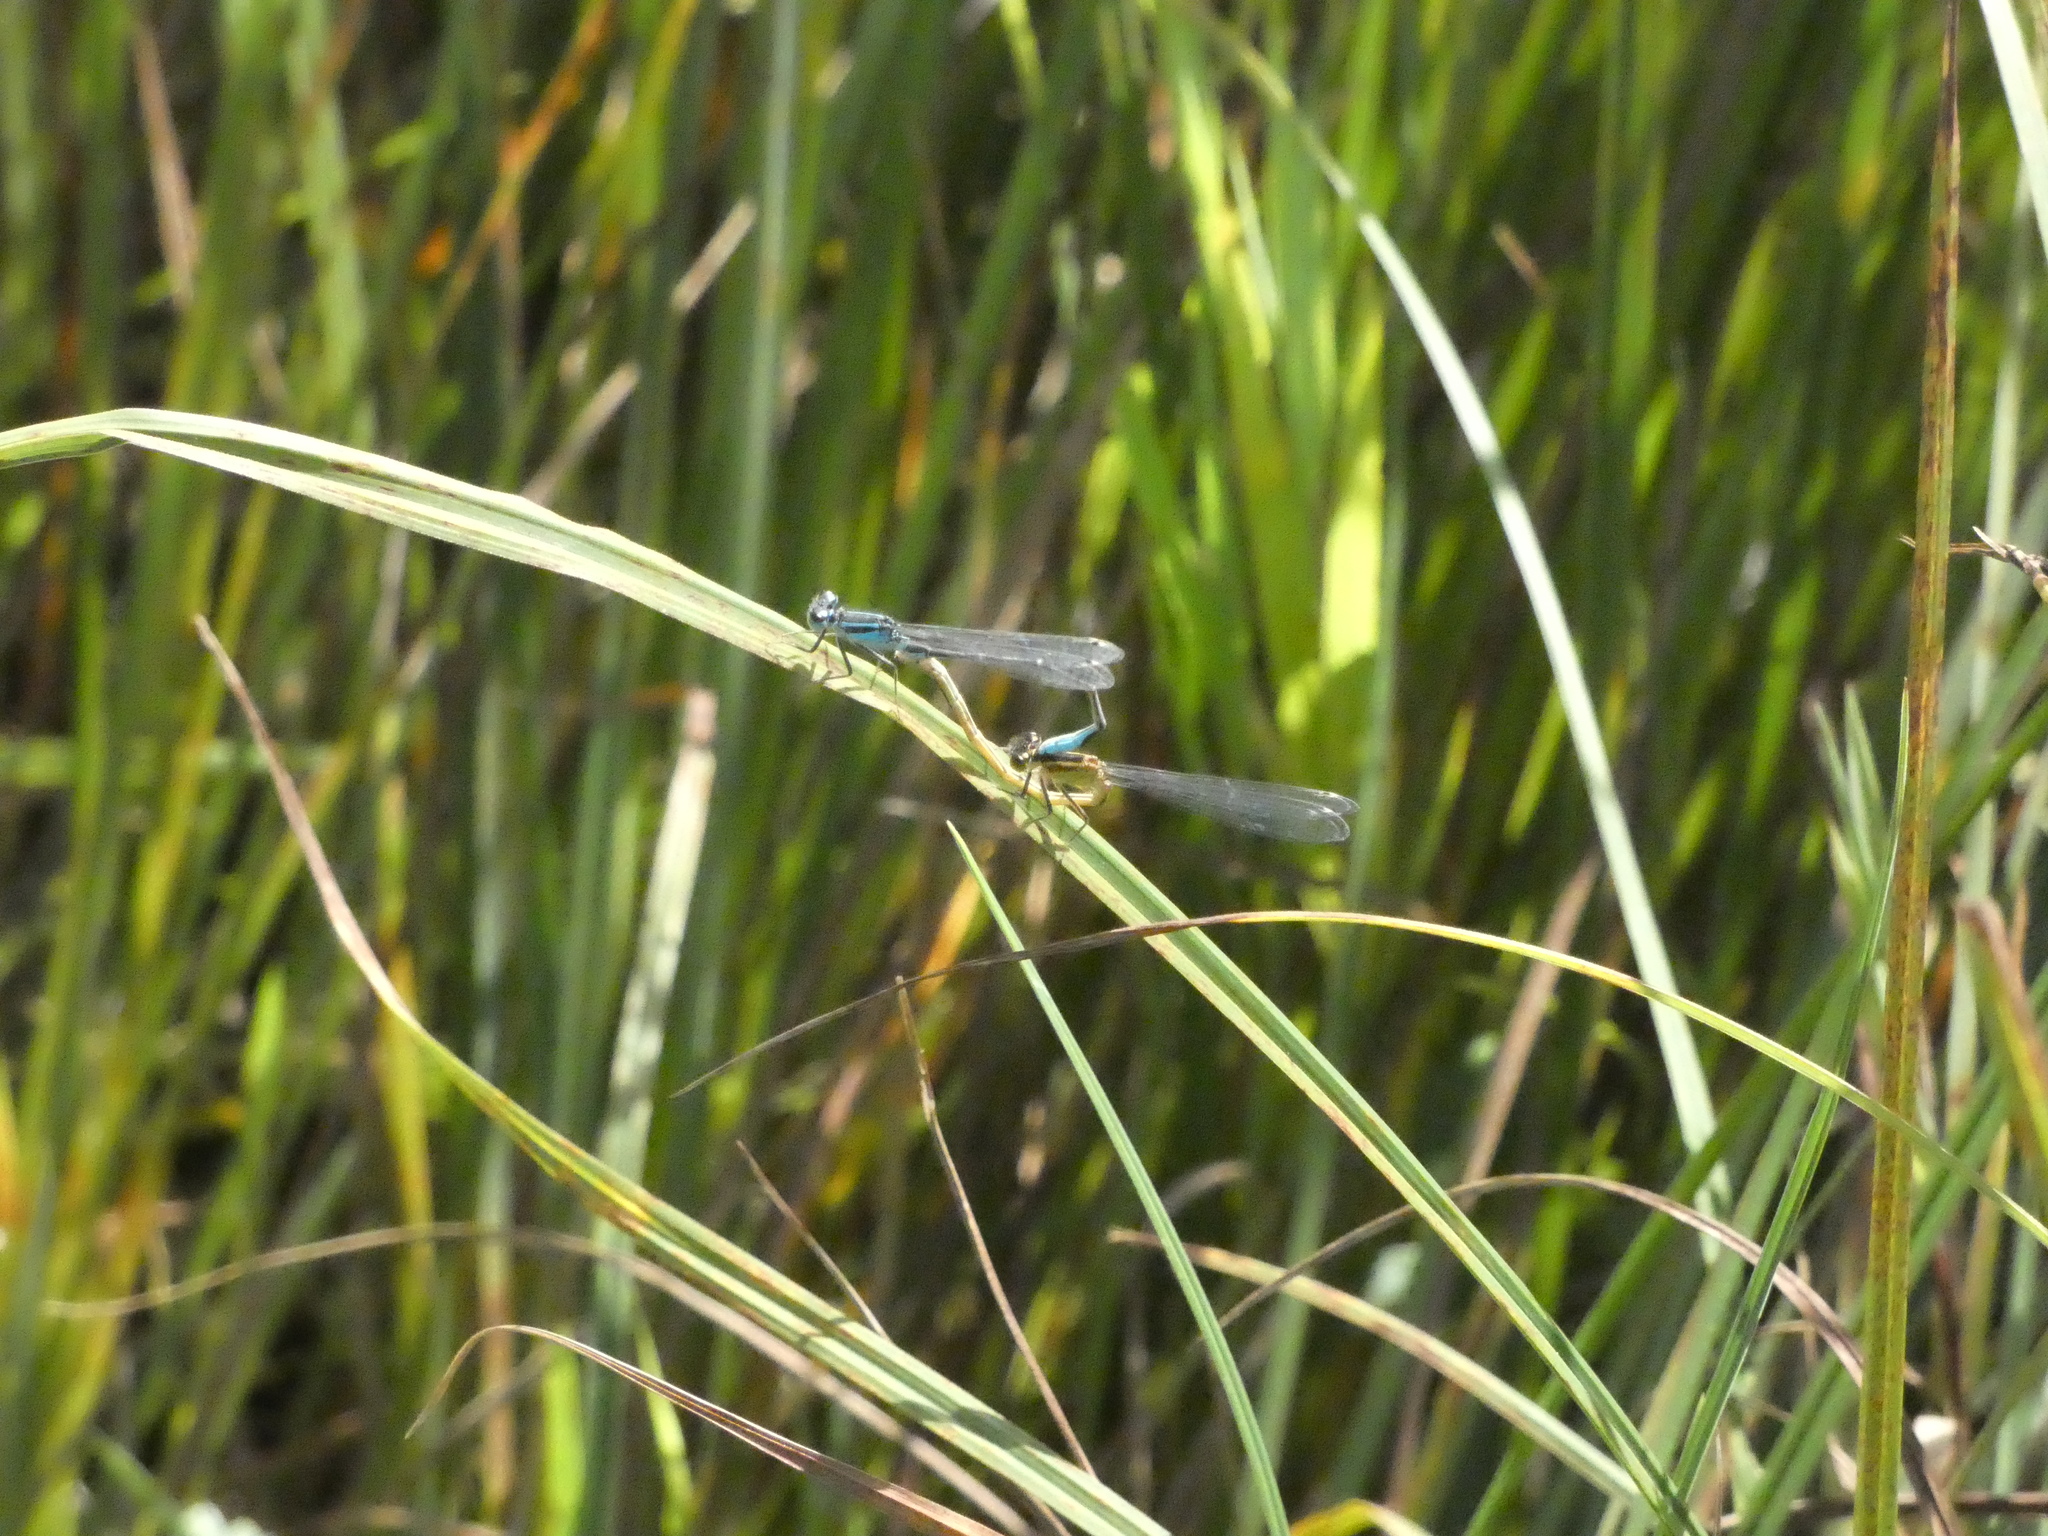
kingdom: Animalia
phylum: Arthropoda
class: Insecta
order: Odonata
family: Coenagrionidae
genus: Ischnura
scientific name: Ischnura elegans
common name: Blue-tailed damselfly
